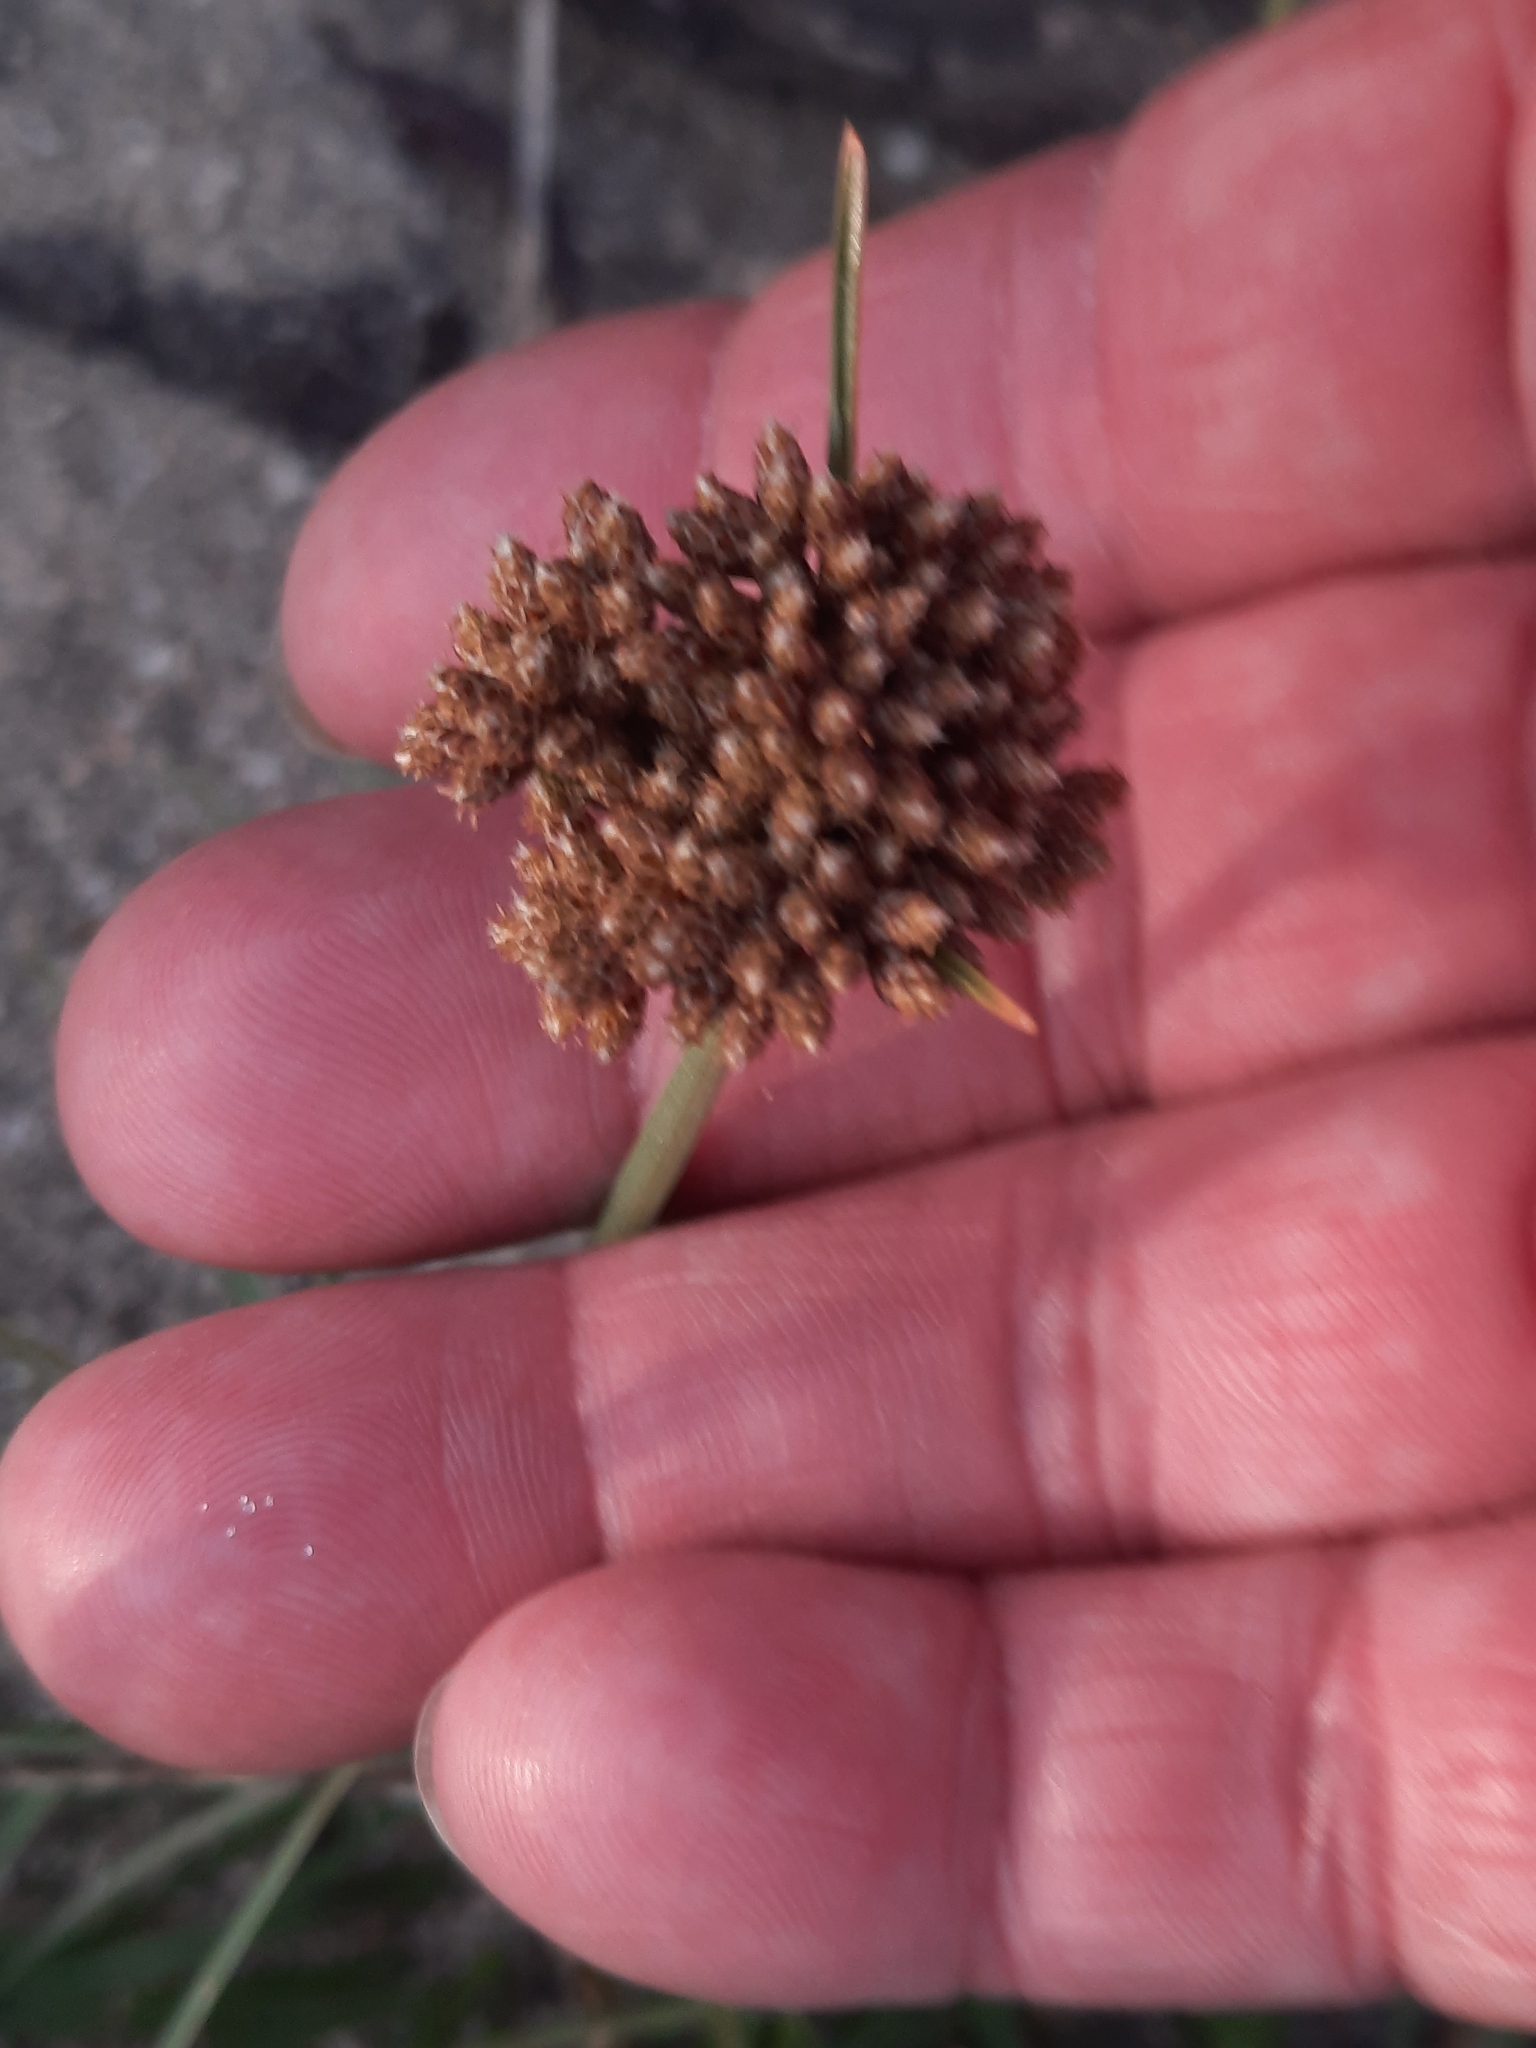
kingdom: Plantae
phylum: Tracheophyta
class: Liliopsida
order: Poales
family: Cyperaceae
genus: Fimbristylis
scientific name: Fimbristylis cymosa
